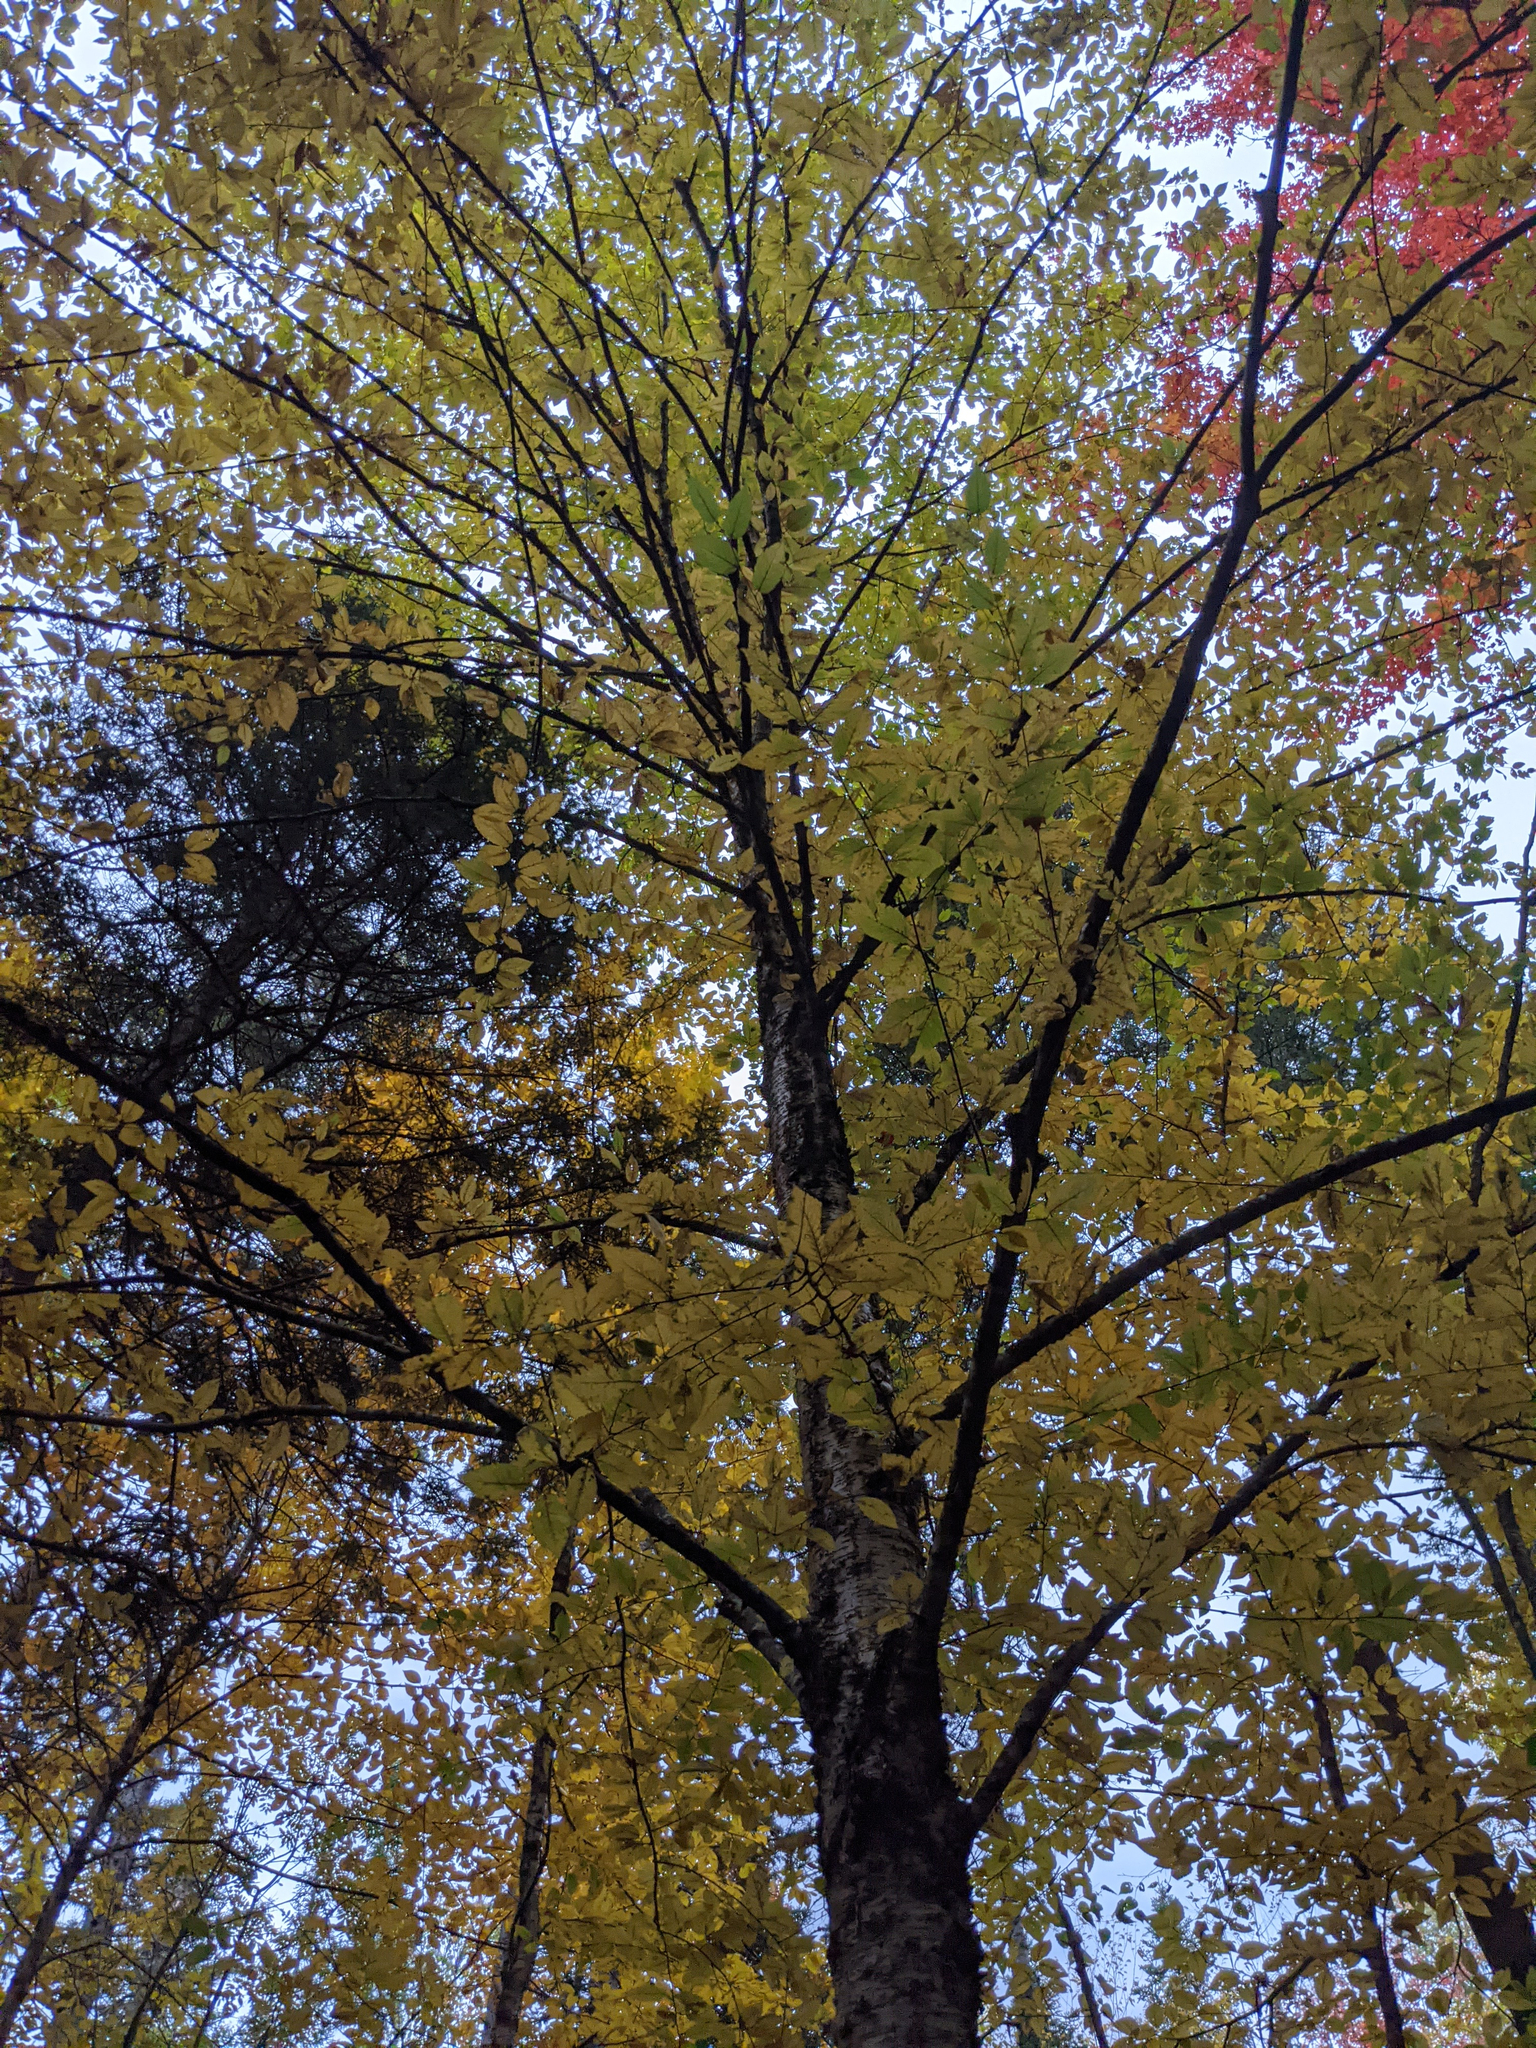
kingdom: Plantae
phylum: Tracheophyta
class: Magnoliopsida
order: Fagales
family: Betulaceae
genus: Betula
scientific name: Betula alleghaniensis
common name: Yellow birch
